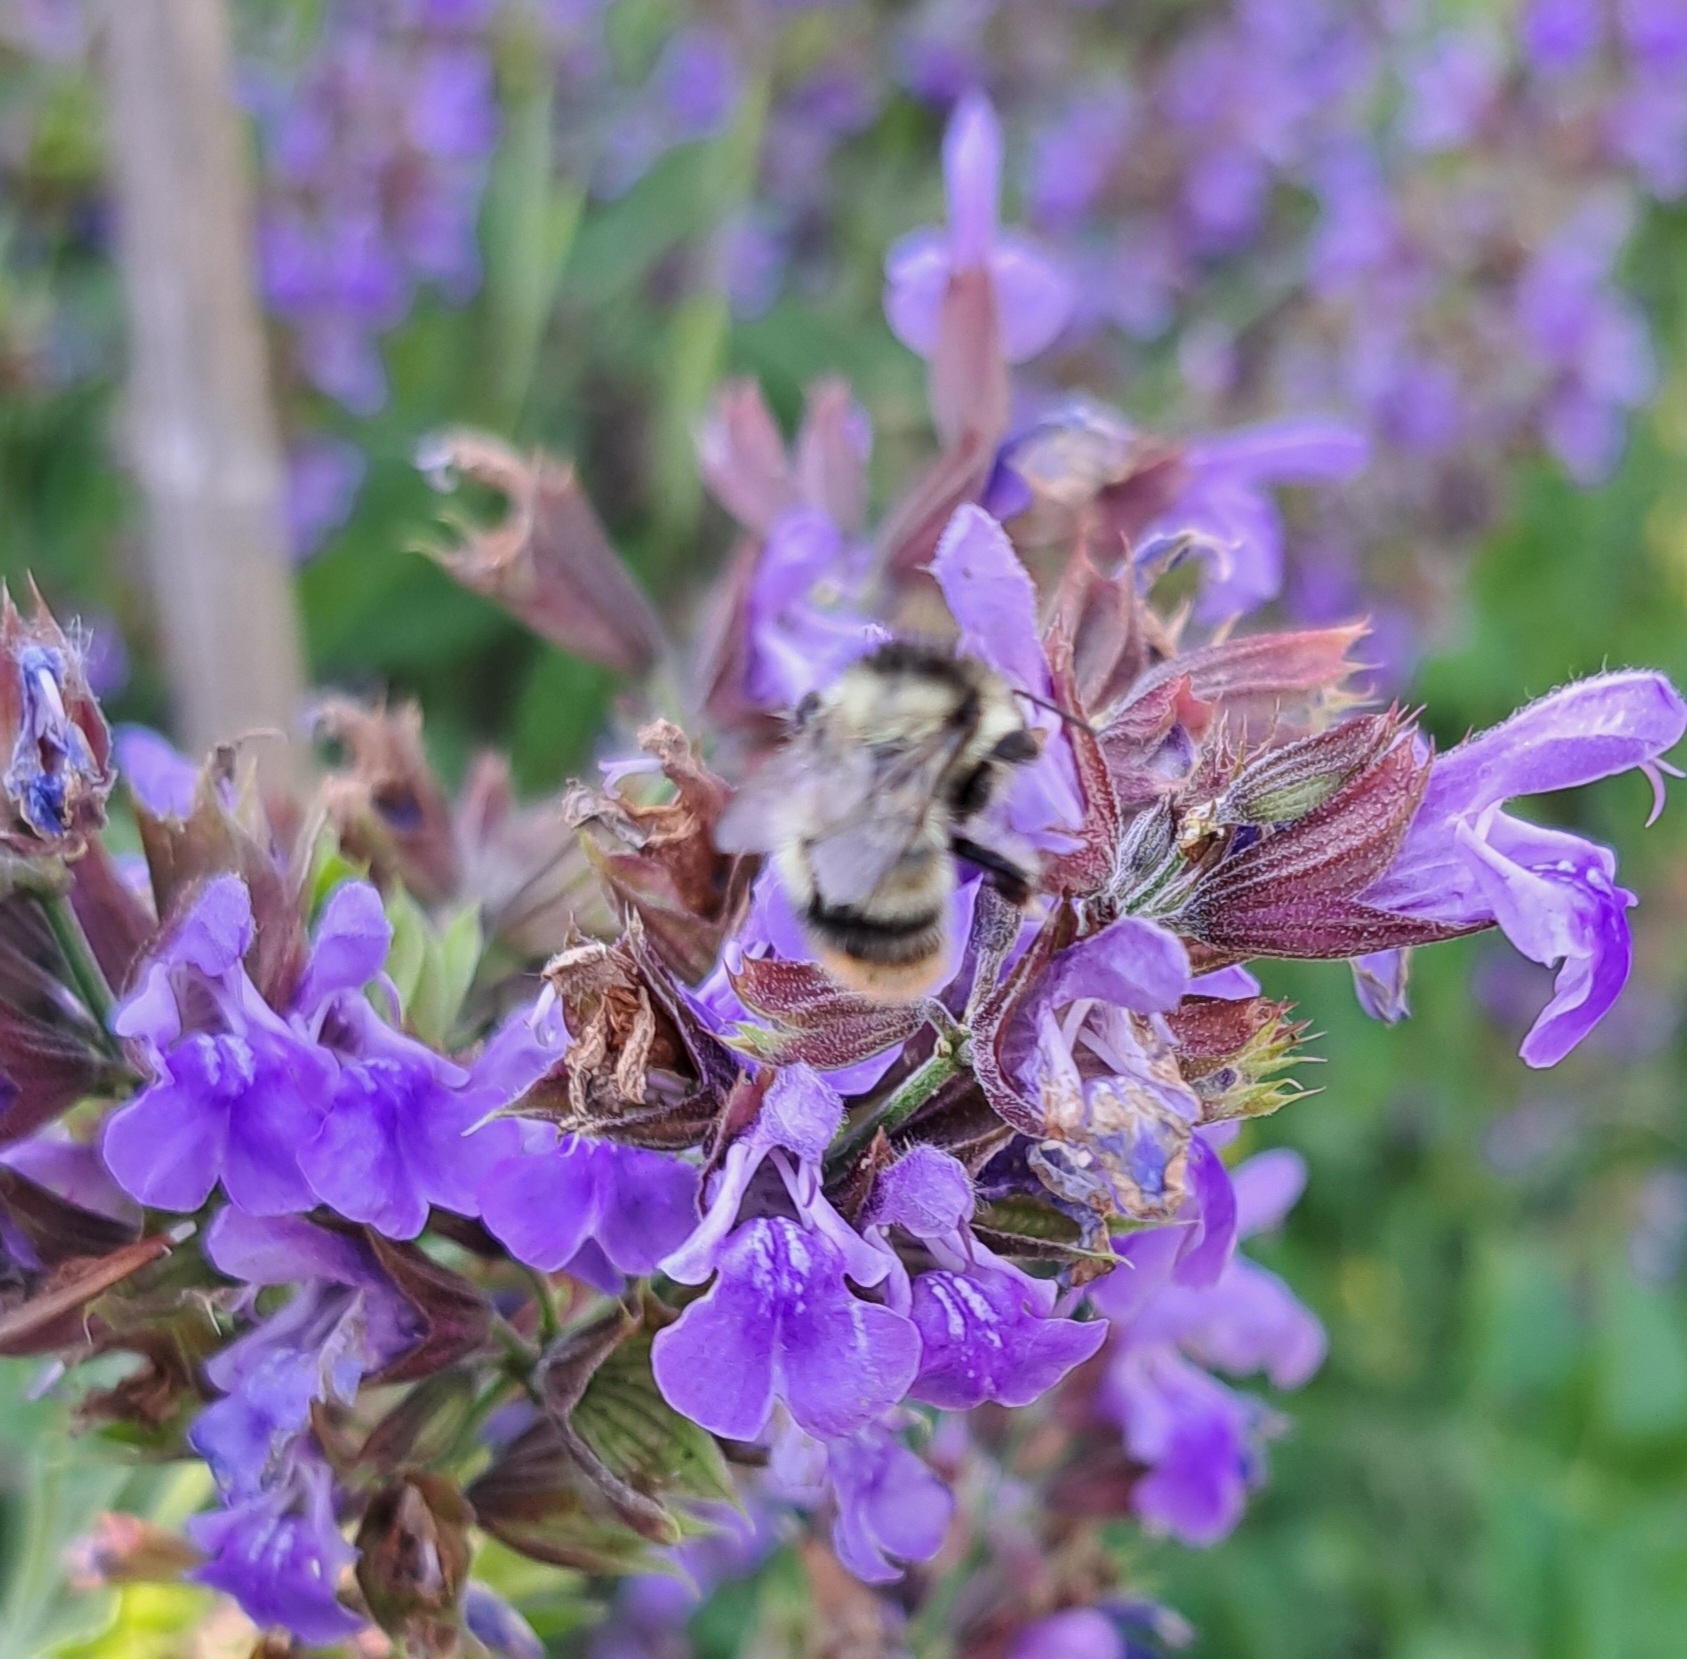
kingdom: Animalia
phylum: Arthropoda
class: Insecta
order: Hymenoptera
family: Apidae
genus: Bombus
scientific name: Bombus sylvarum
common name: Shrill carder bee
